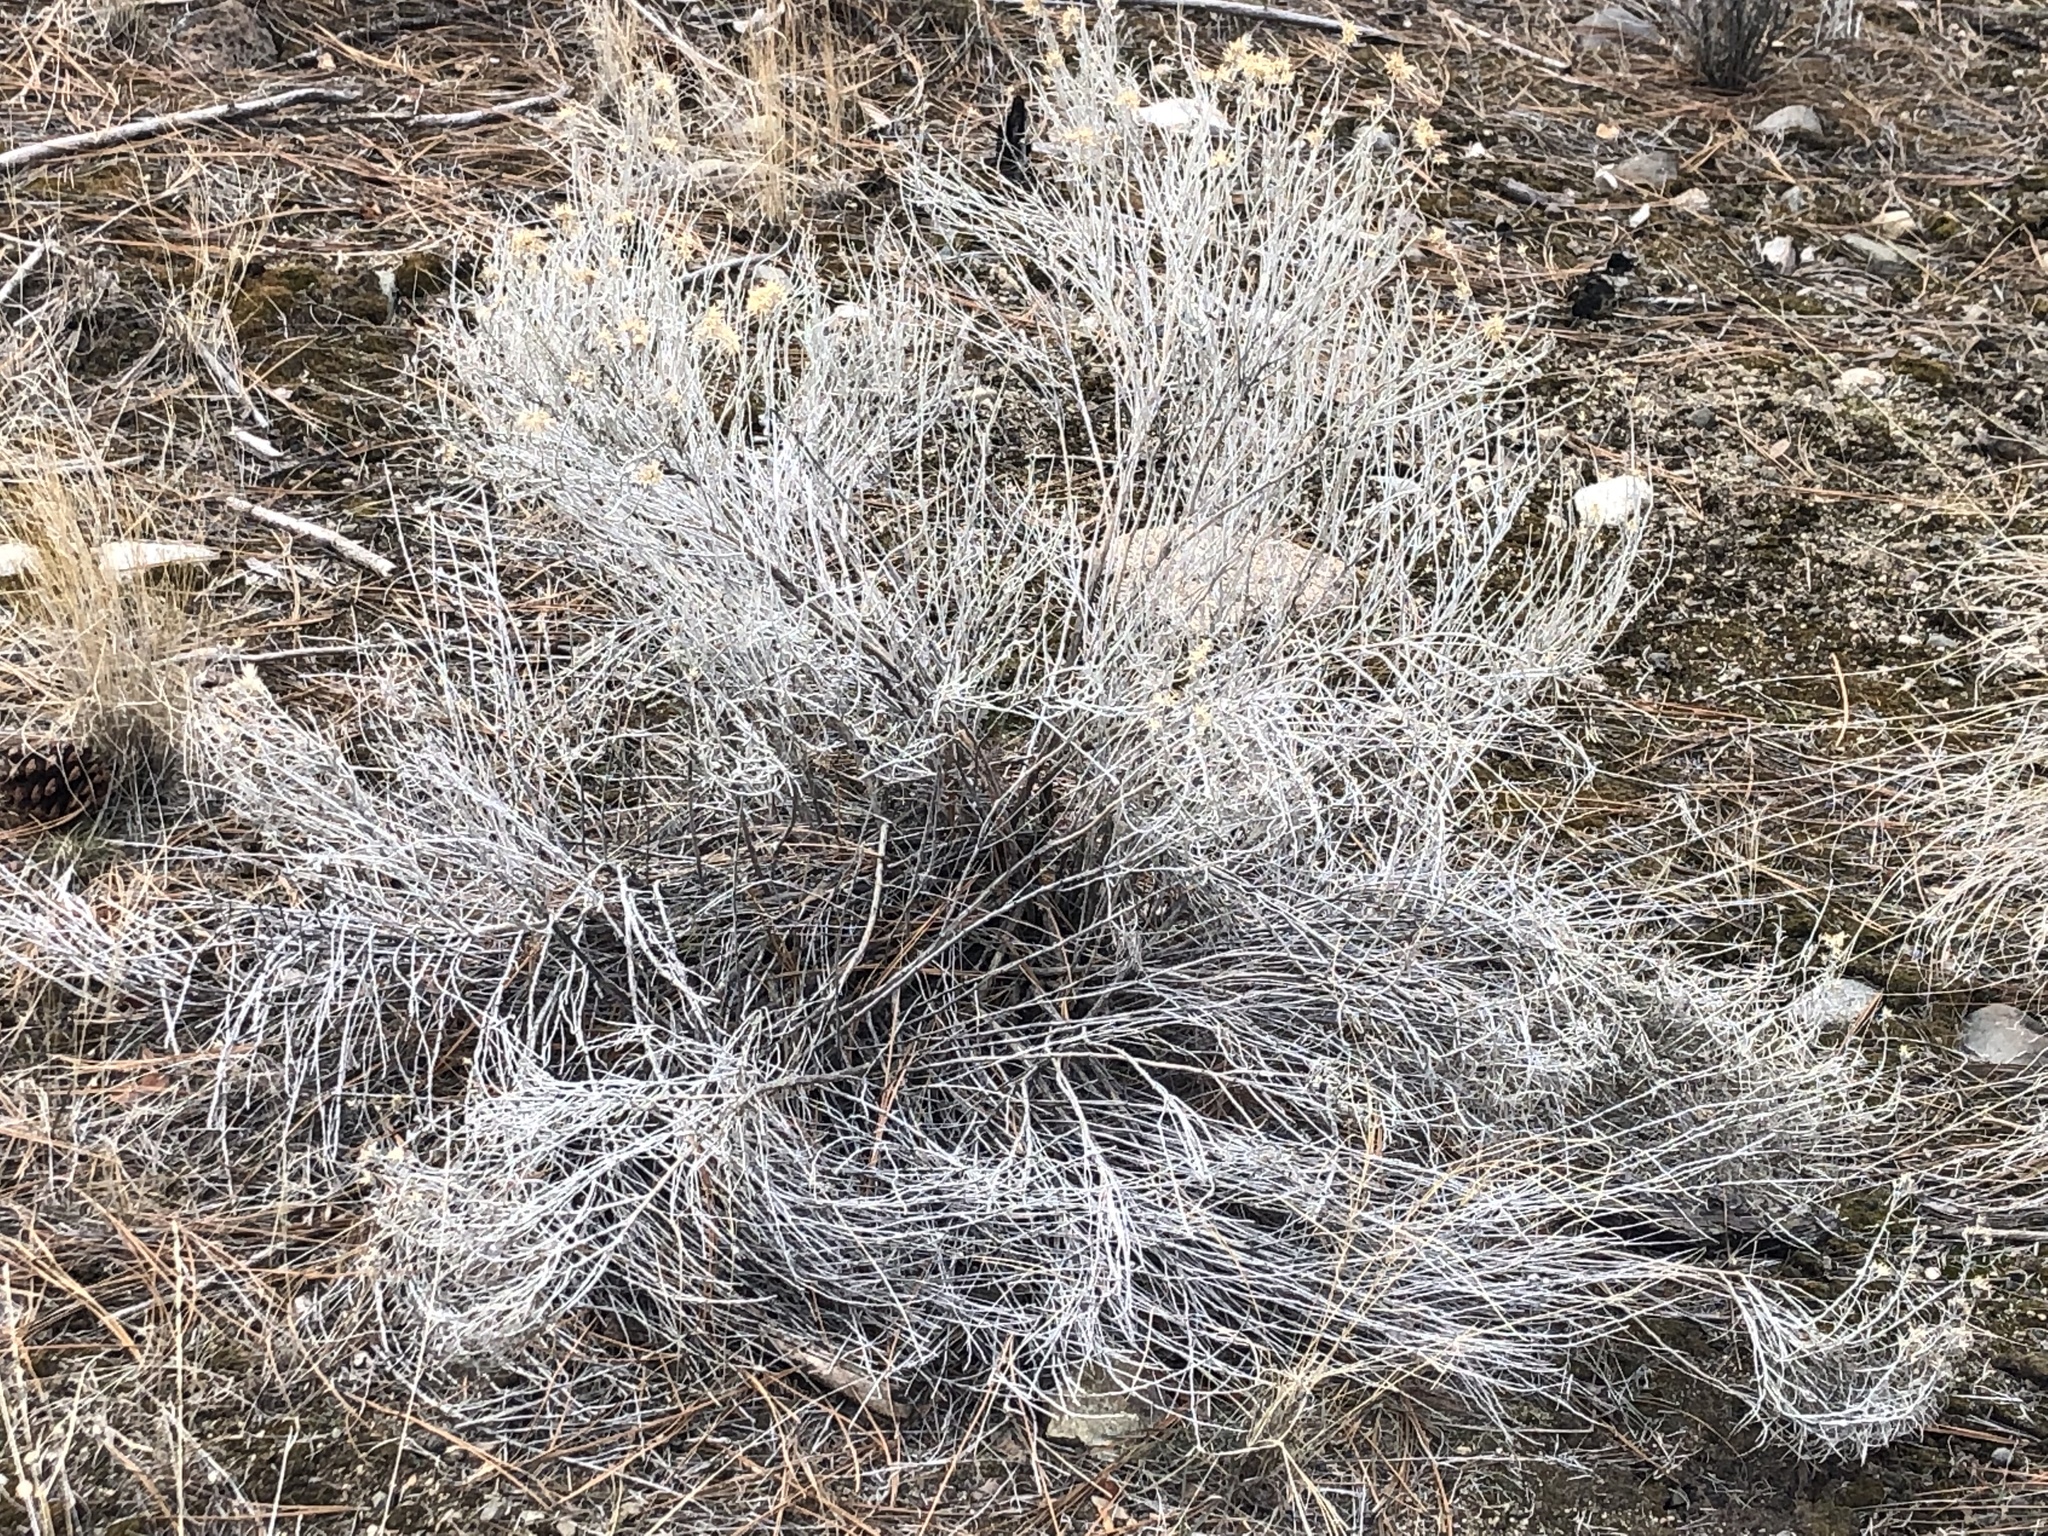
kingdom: Plantae
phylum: Tracheophyta
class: Magnoliopsida
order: Asterales
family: Asteraceae
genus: Ericameria
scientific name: Ericameria nauseosa
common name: Rubber rabbitbrush
